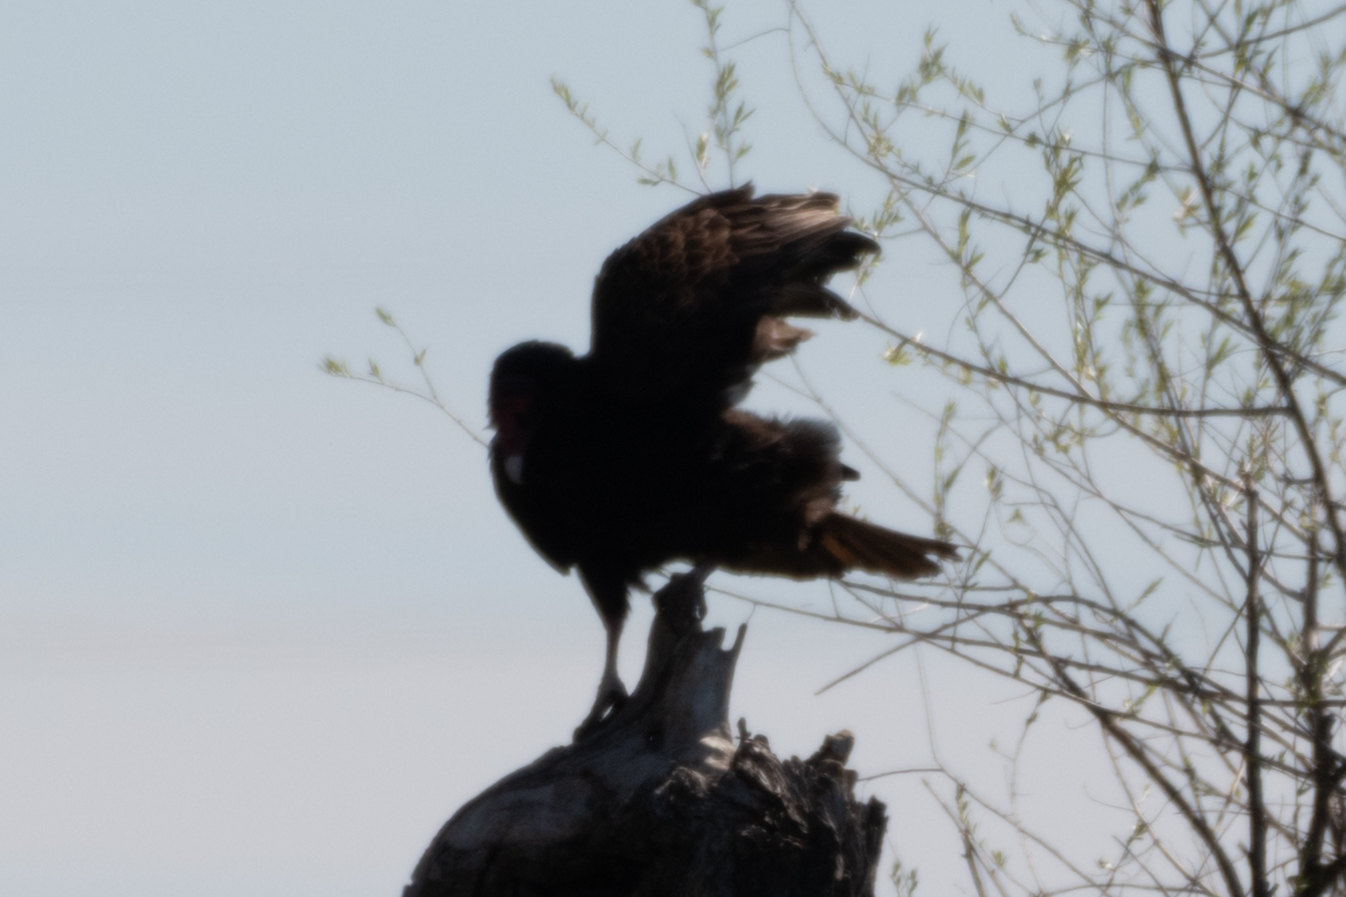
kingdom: Animalia
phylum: Chordata
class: Aves
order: Accipitriformes
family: Cathartidae
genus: Cathartes
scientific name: Cathartes aura
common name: Turkey vulture
